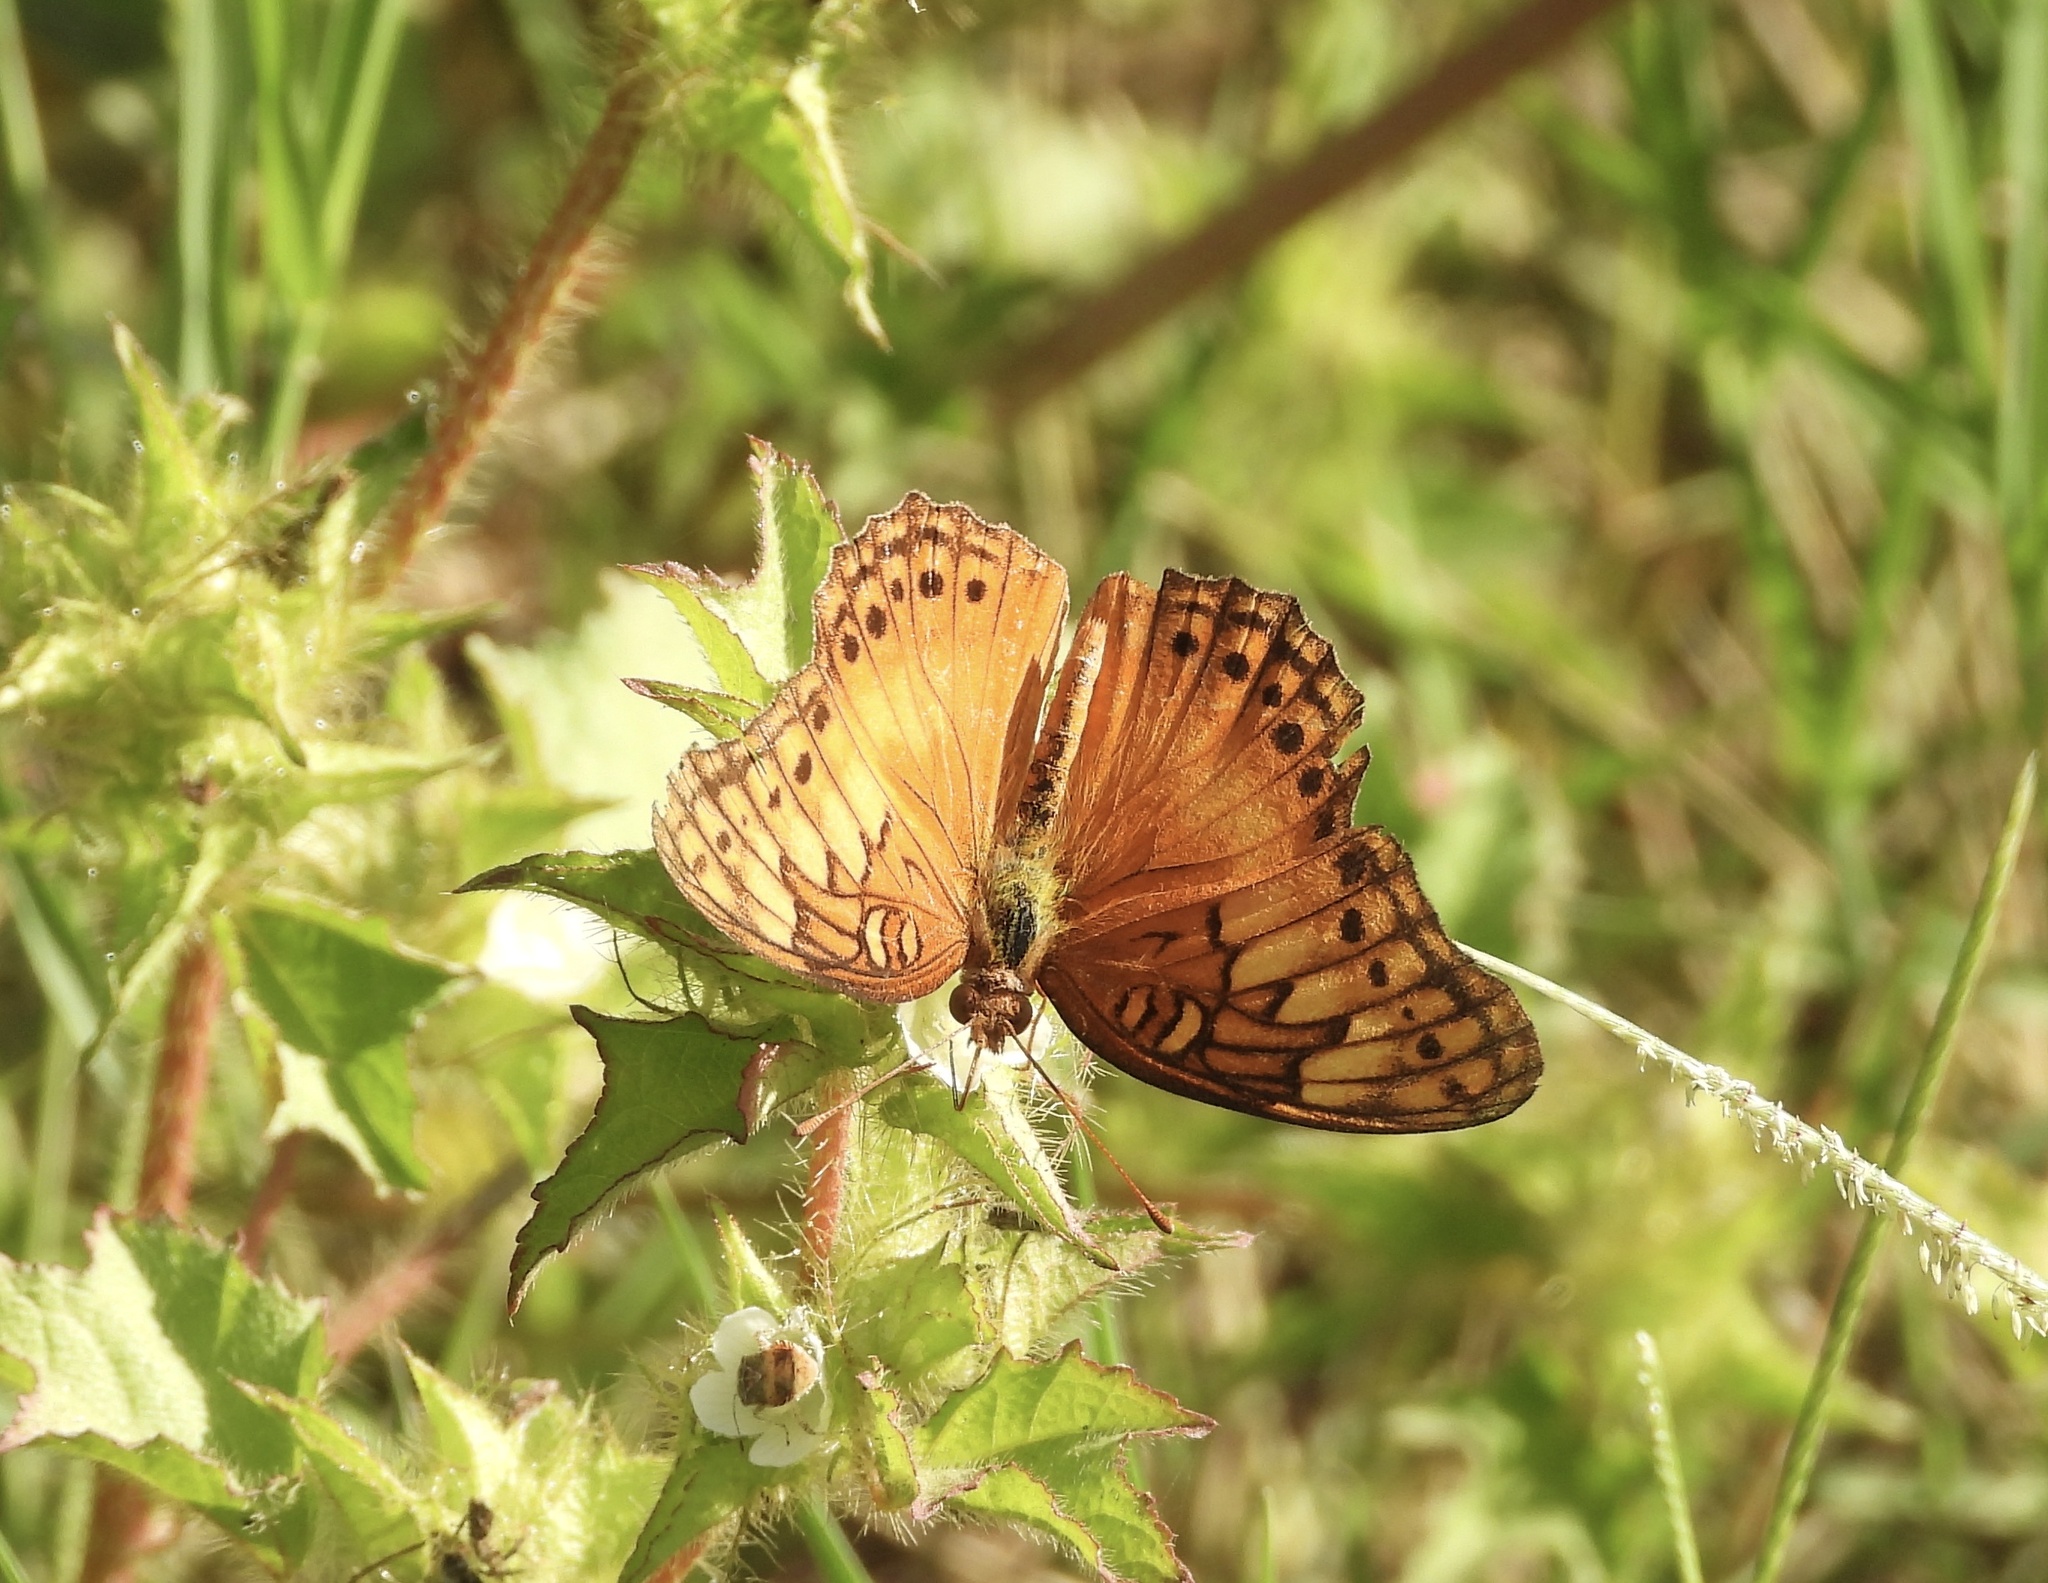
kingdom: Animalia
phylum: Arthropoda
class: Insecta
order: Lepidoptera
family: Nymphalidae
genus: Euptoieta
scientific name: Euptoieta hegesia
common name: Mexican fritillary
